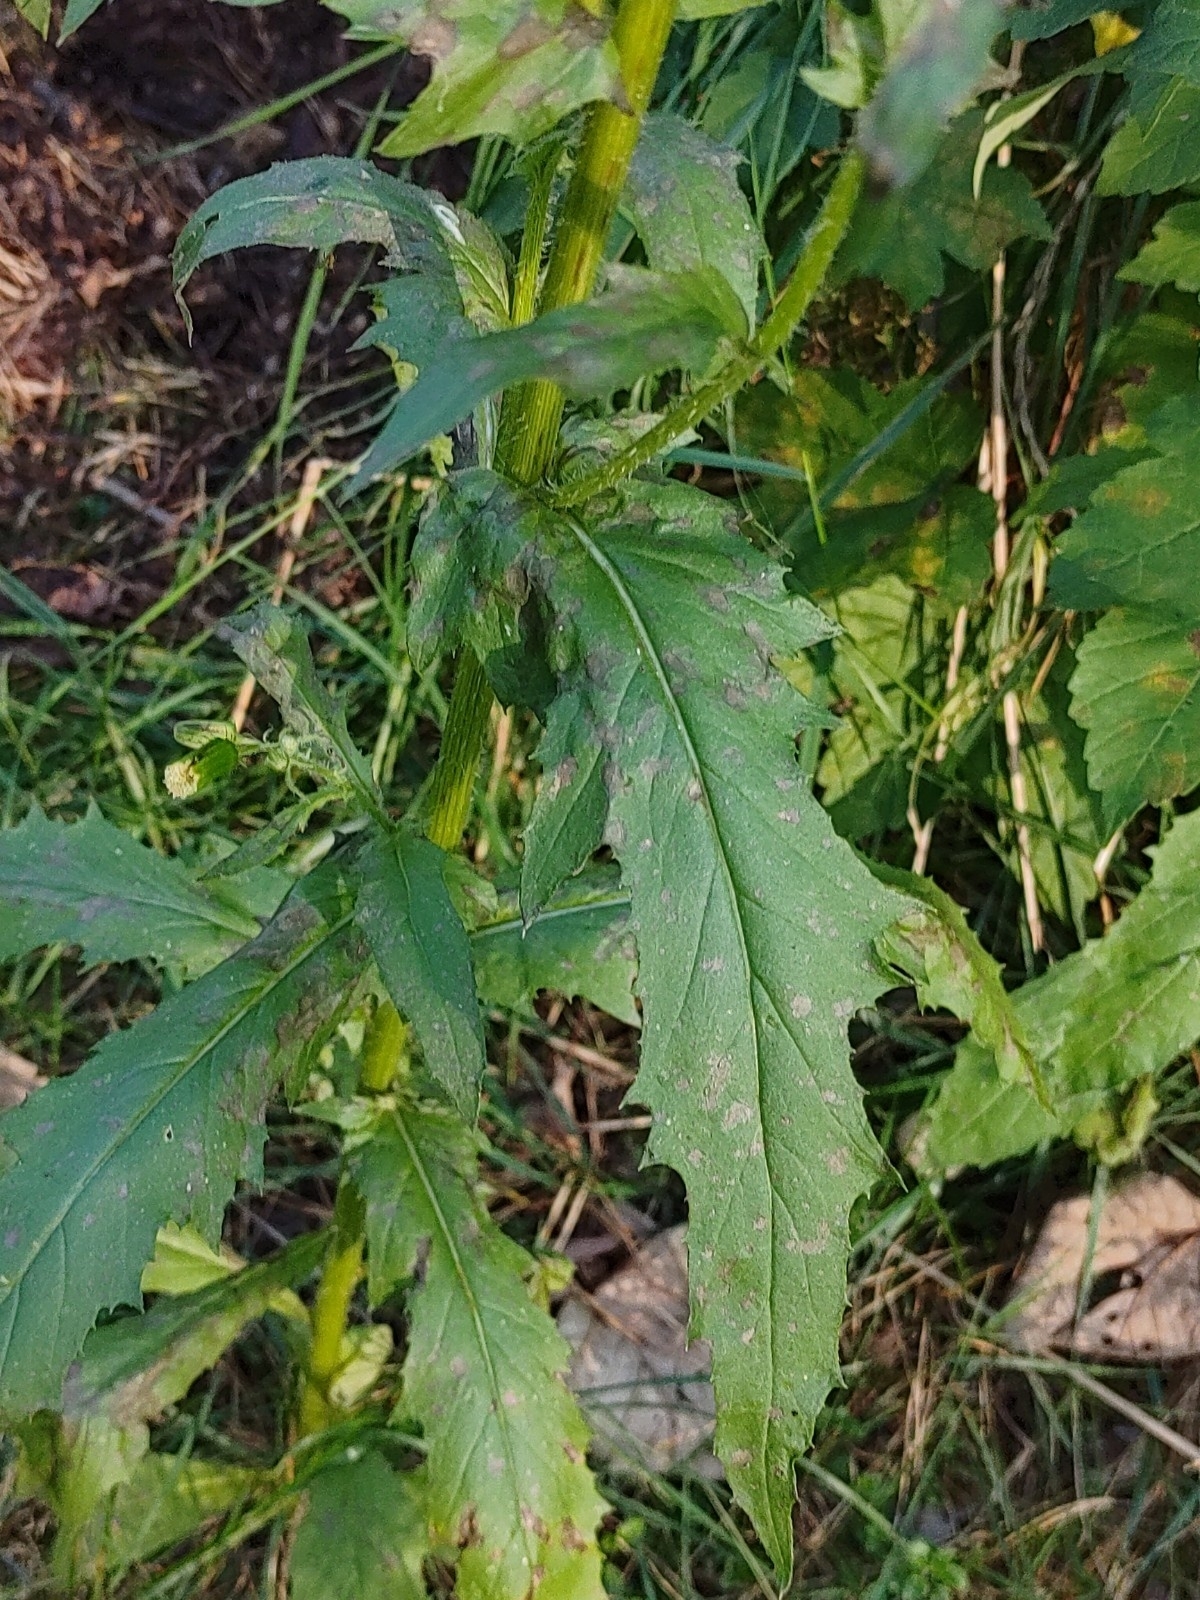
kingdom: Plantae
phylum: Tracheophyta
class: Magnoliopsida
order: Asterales
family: Asteraceae
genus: Erechtites
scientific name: Erechtites hieraciifolius
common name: American burnweed
